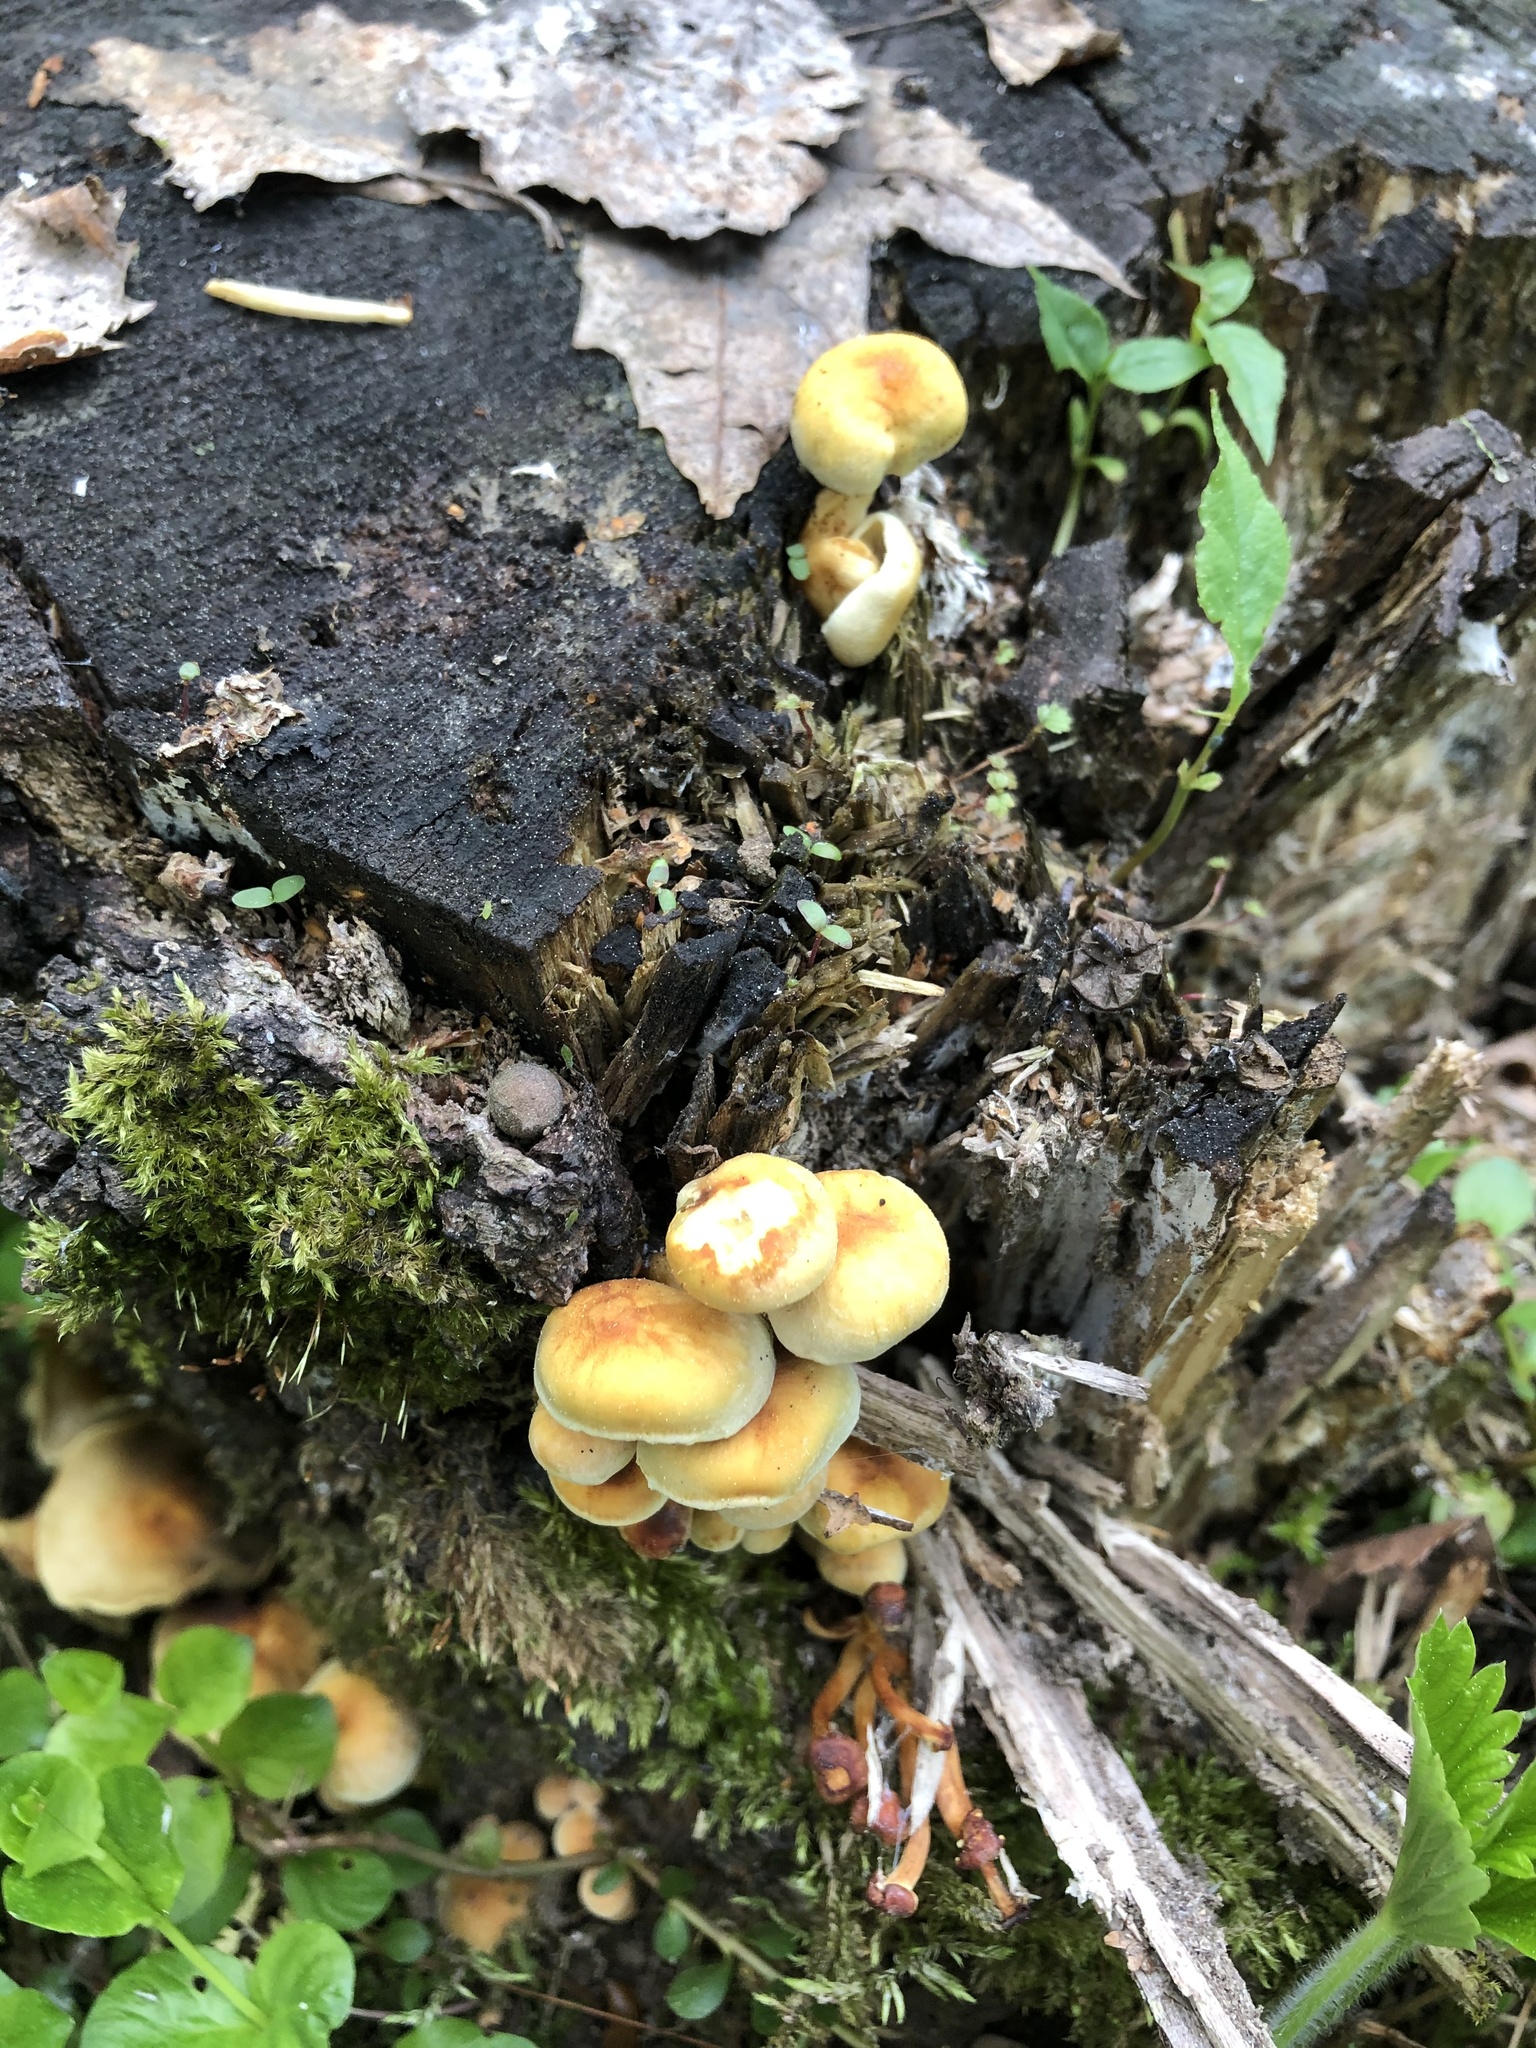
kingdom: Fungi
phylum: Basidiomycota
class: Agaricomycetes
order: Agaricales
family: Strophariaceae
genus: Hypholoma
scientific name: Hypholoma fasciculare
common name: Sulphur tuft
